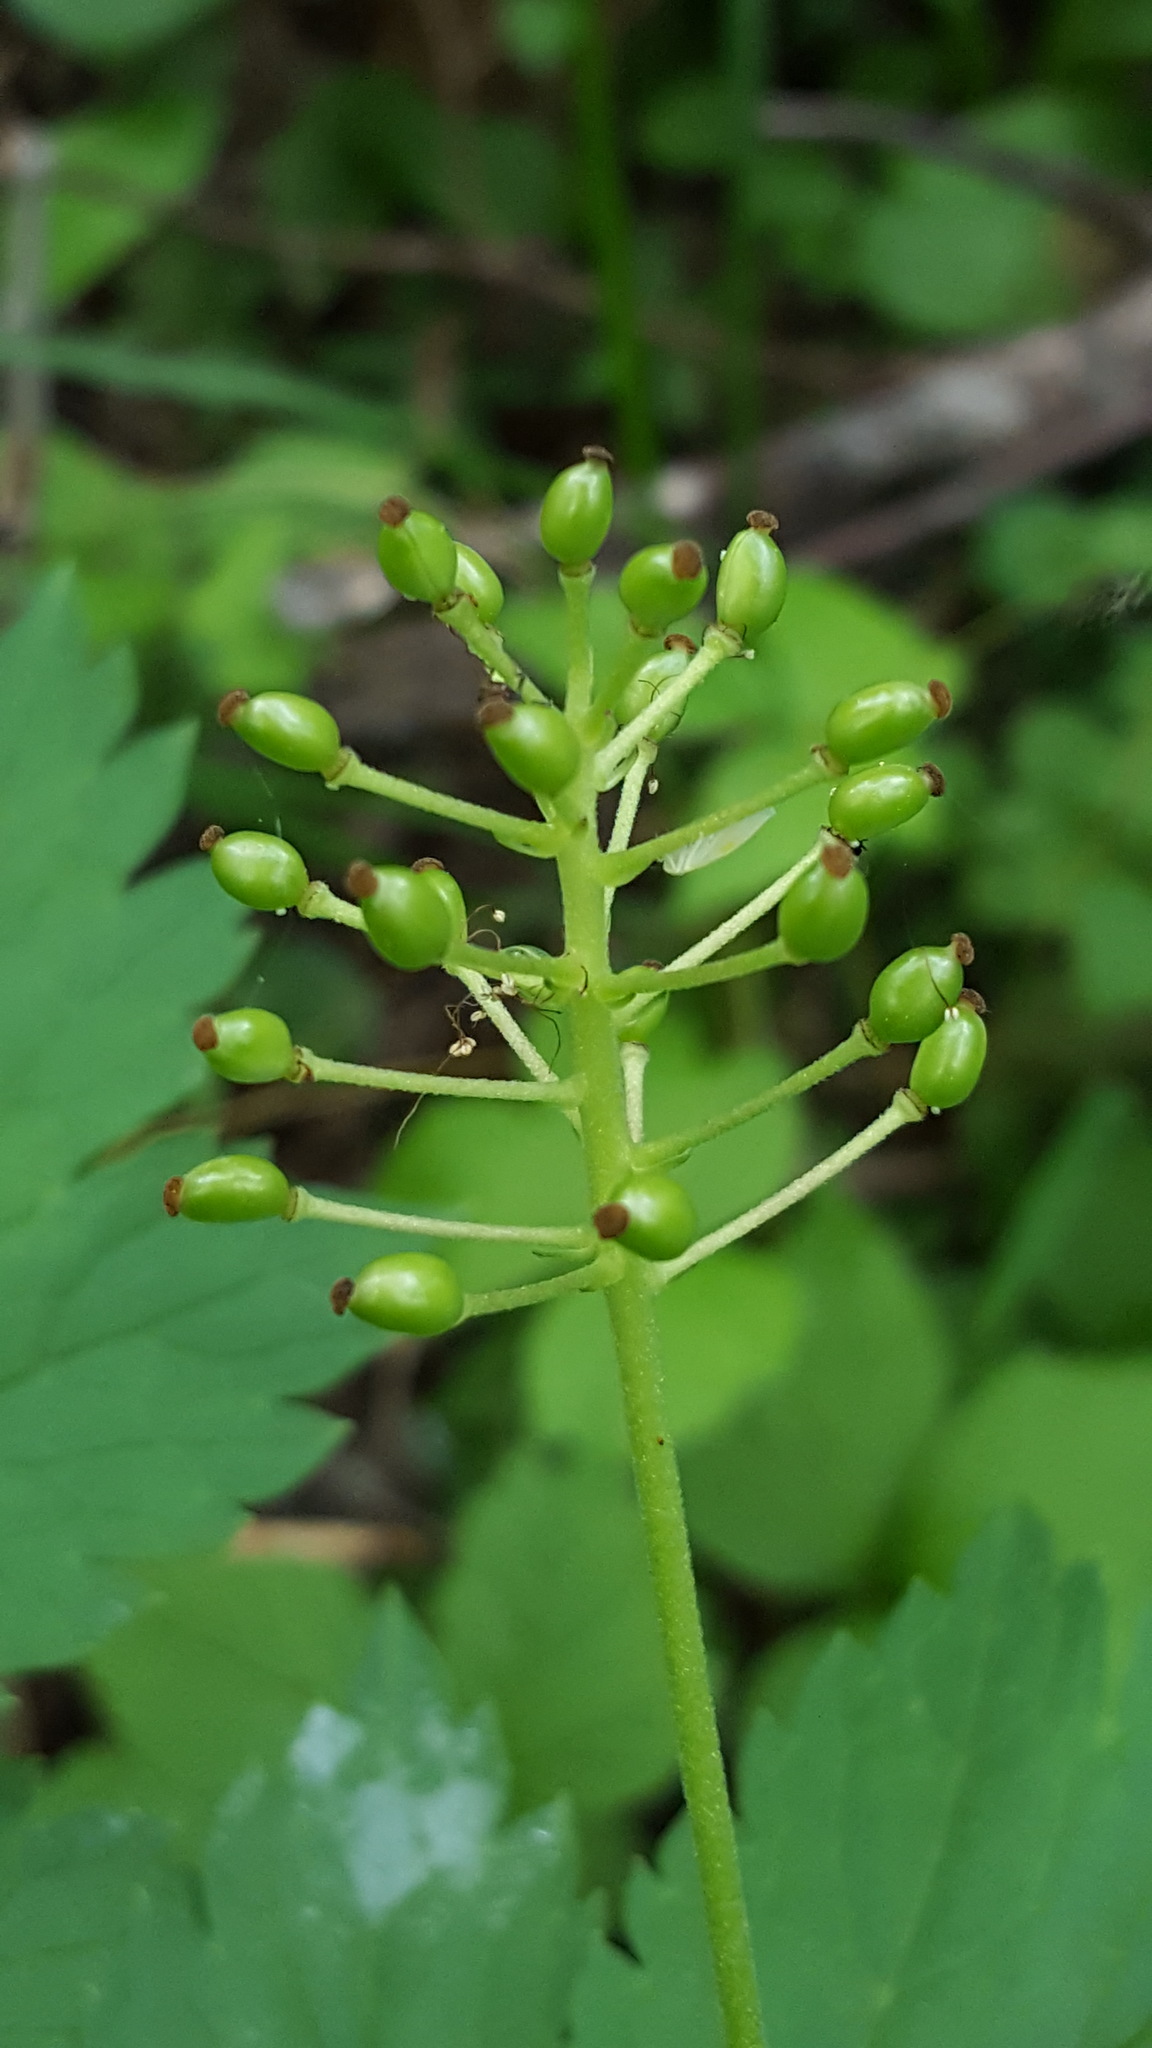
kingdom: Plantae
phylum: Tracheophyta
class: Magnoliopsida
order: Ranunculales
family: Ranunculaceae
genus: Actaea
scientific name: Actaea rubra
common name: Red baneberry
